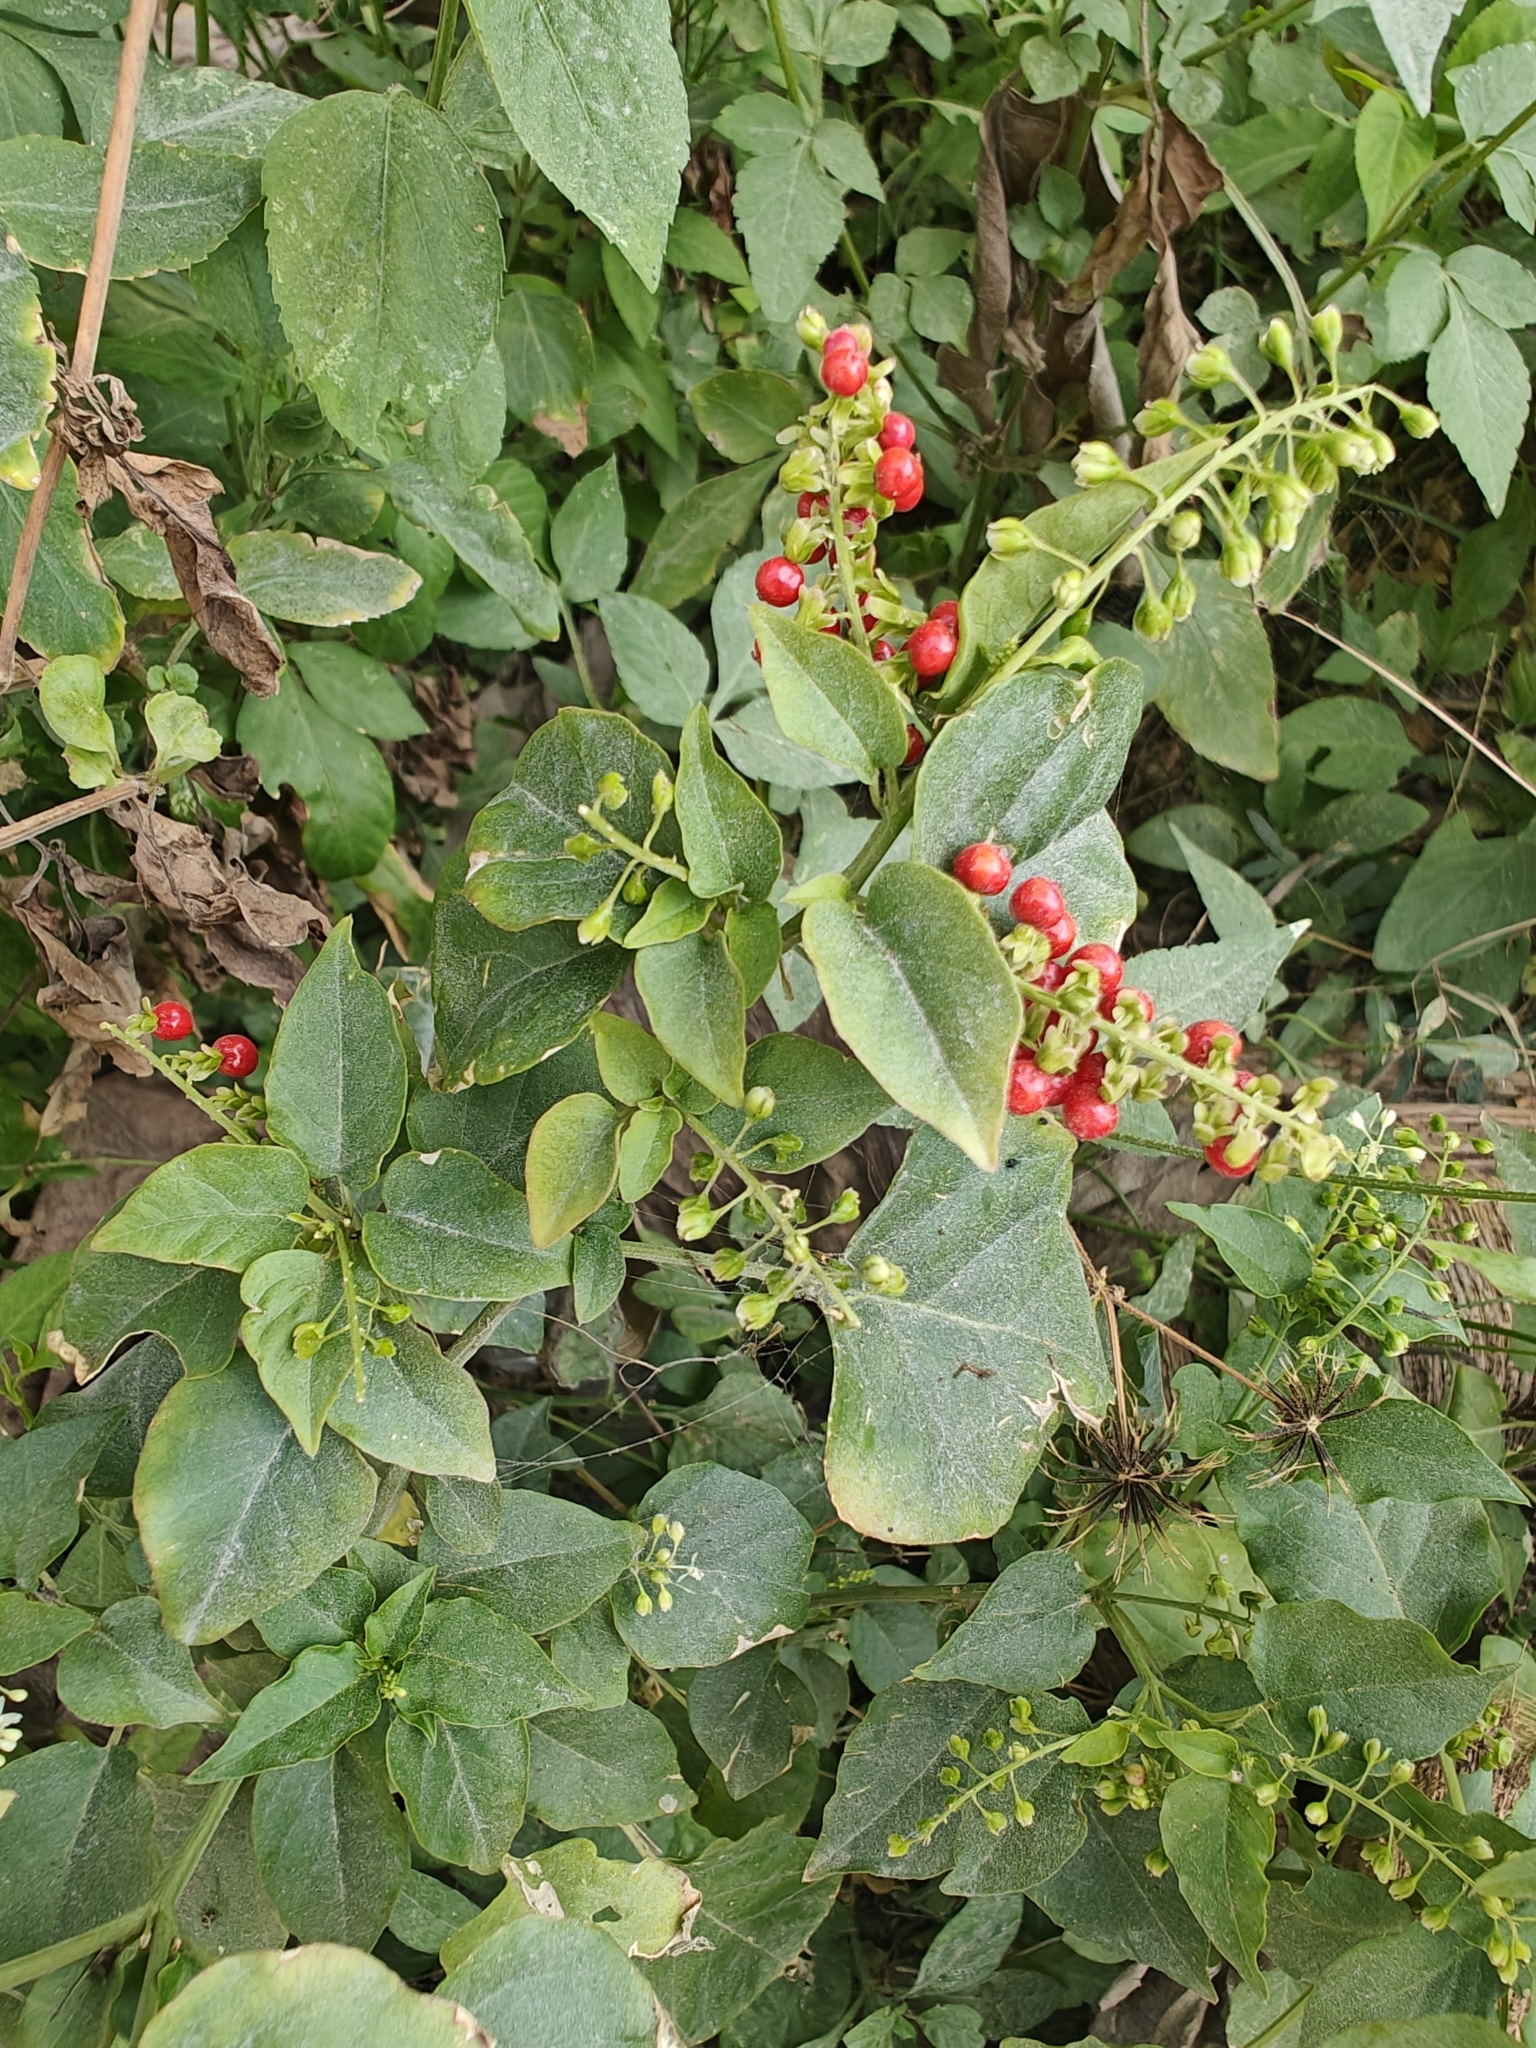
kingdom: Plantae
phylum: Tracheophyta
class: Magnoliopsida
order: Caryophyllales
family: Phytolaccaceae
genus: Rivina
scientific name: Rivina humilis
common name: Rougeplant
